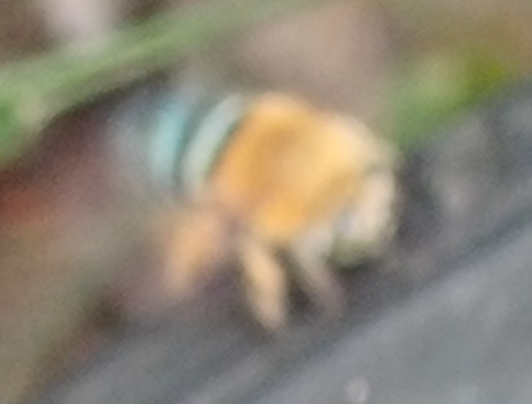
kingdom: Animalia
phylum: Arthropoda
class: Insecta
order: Hymenoptera
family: Apidae
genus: Amegilla
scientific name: Amegilla cingulata
